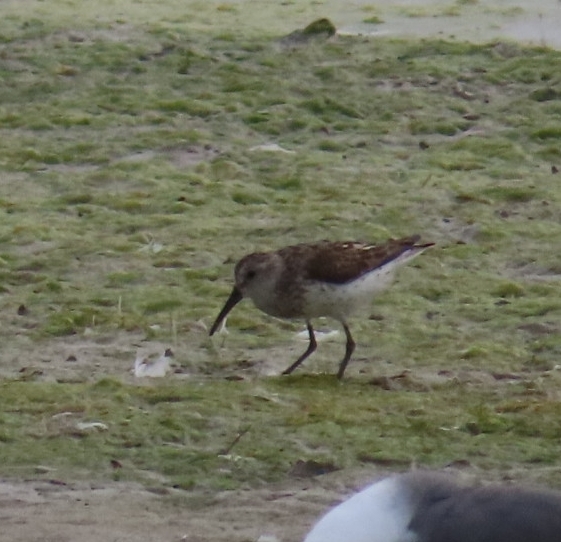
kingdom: Animalia
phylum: Chordata
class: Aves
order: Charadriiformes
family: Scolopacidae
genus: Calidris
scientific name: Calidris mauri
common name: Western sandpiper
